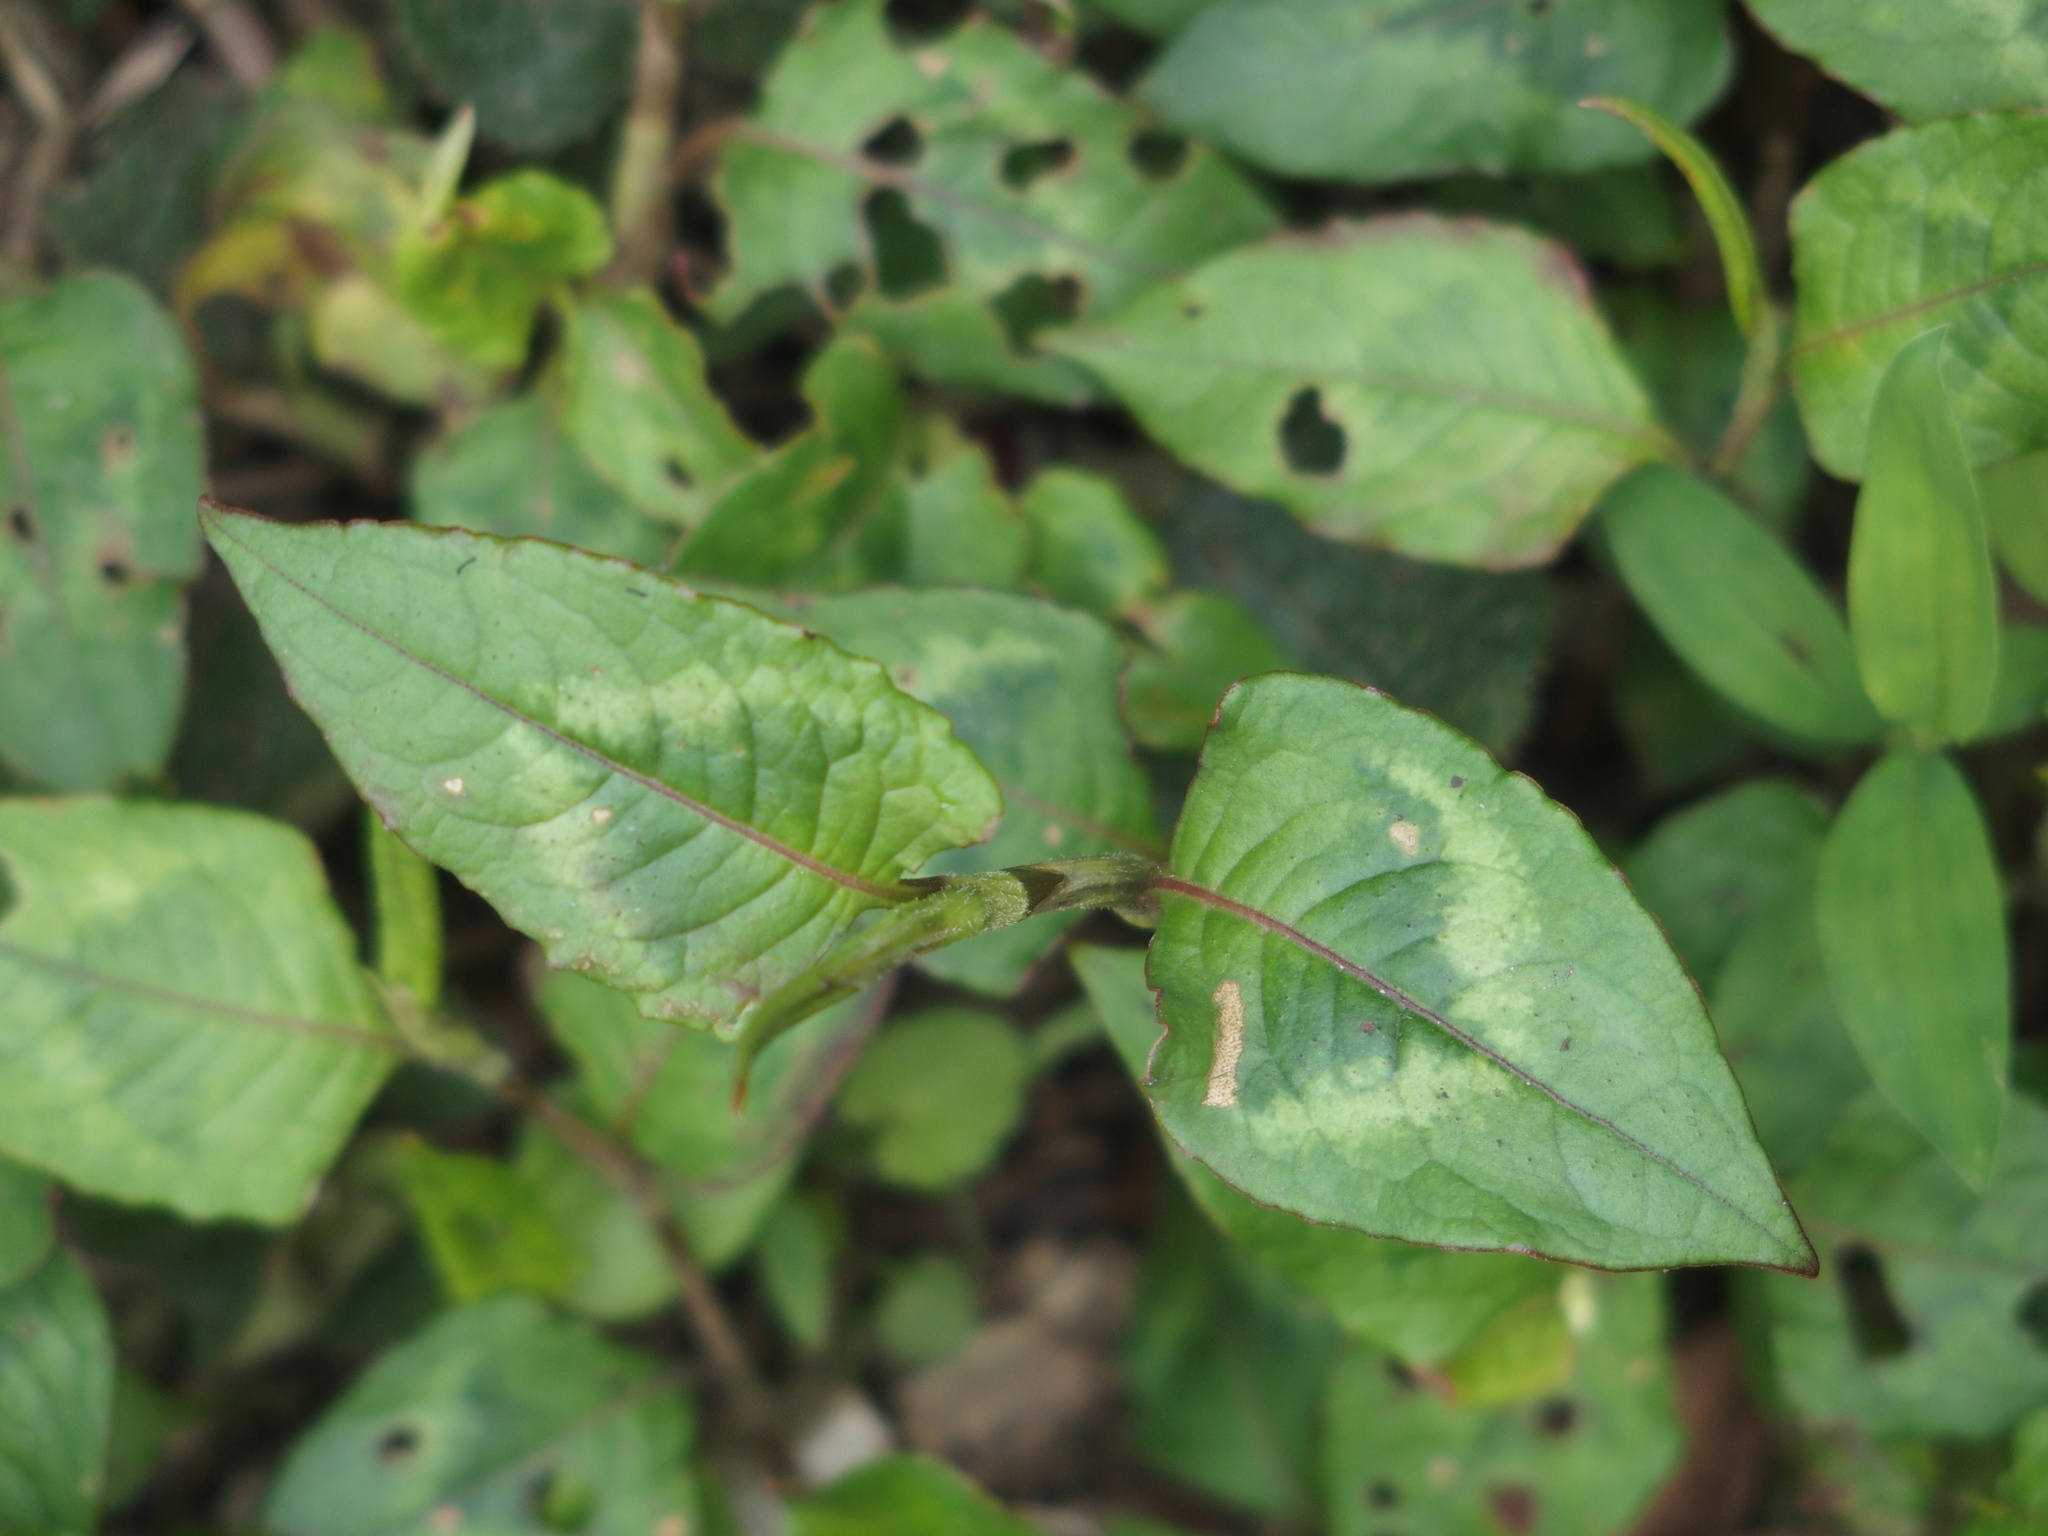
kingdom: Plantae
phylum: Tracheophyta
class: Magnoliopsida
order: Caryophyllales
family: Polygonaceae
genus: Persicaria
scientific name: Persicaria chinensis
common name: Chinese knotweed
